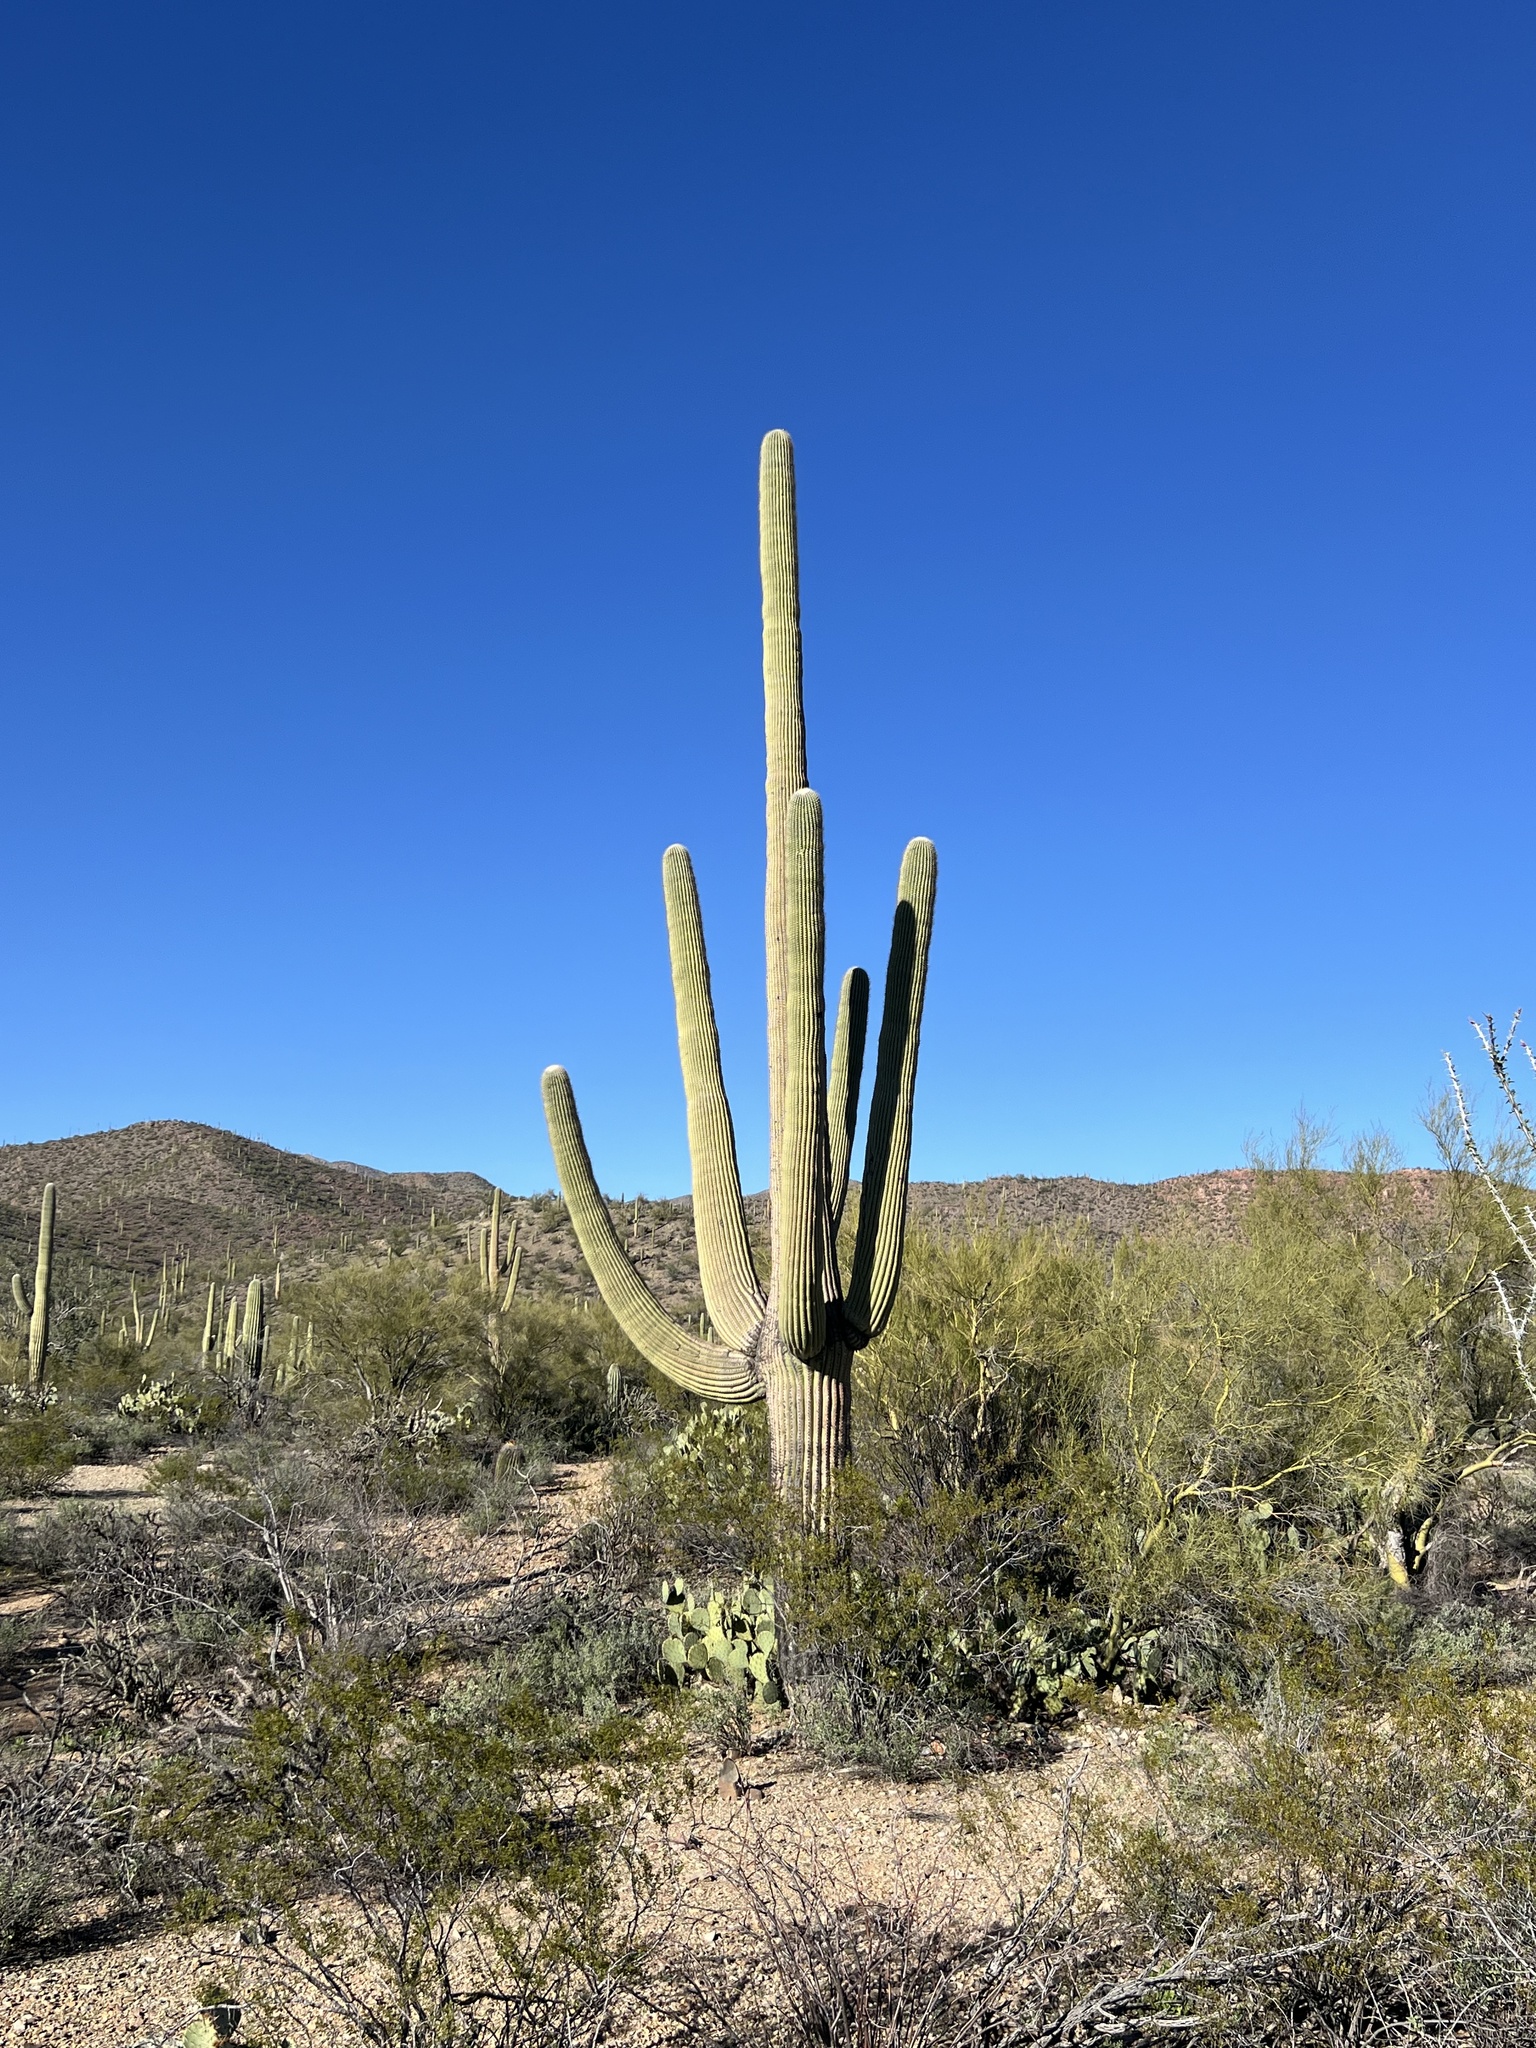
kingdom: Plantae
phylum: Tracheophyta
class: Magnoliopsida
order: Caryophyllales
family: Cactaceae
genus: Carnegiea
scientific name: Carnegiea gigantea
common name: Saguaro
